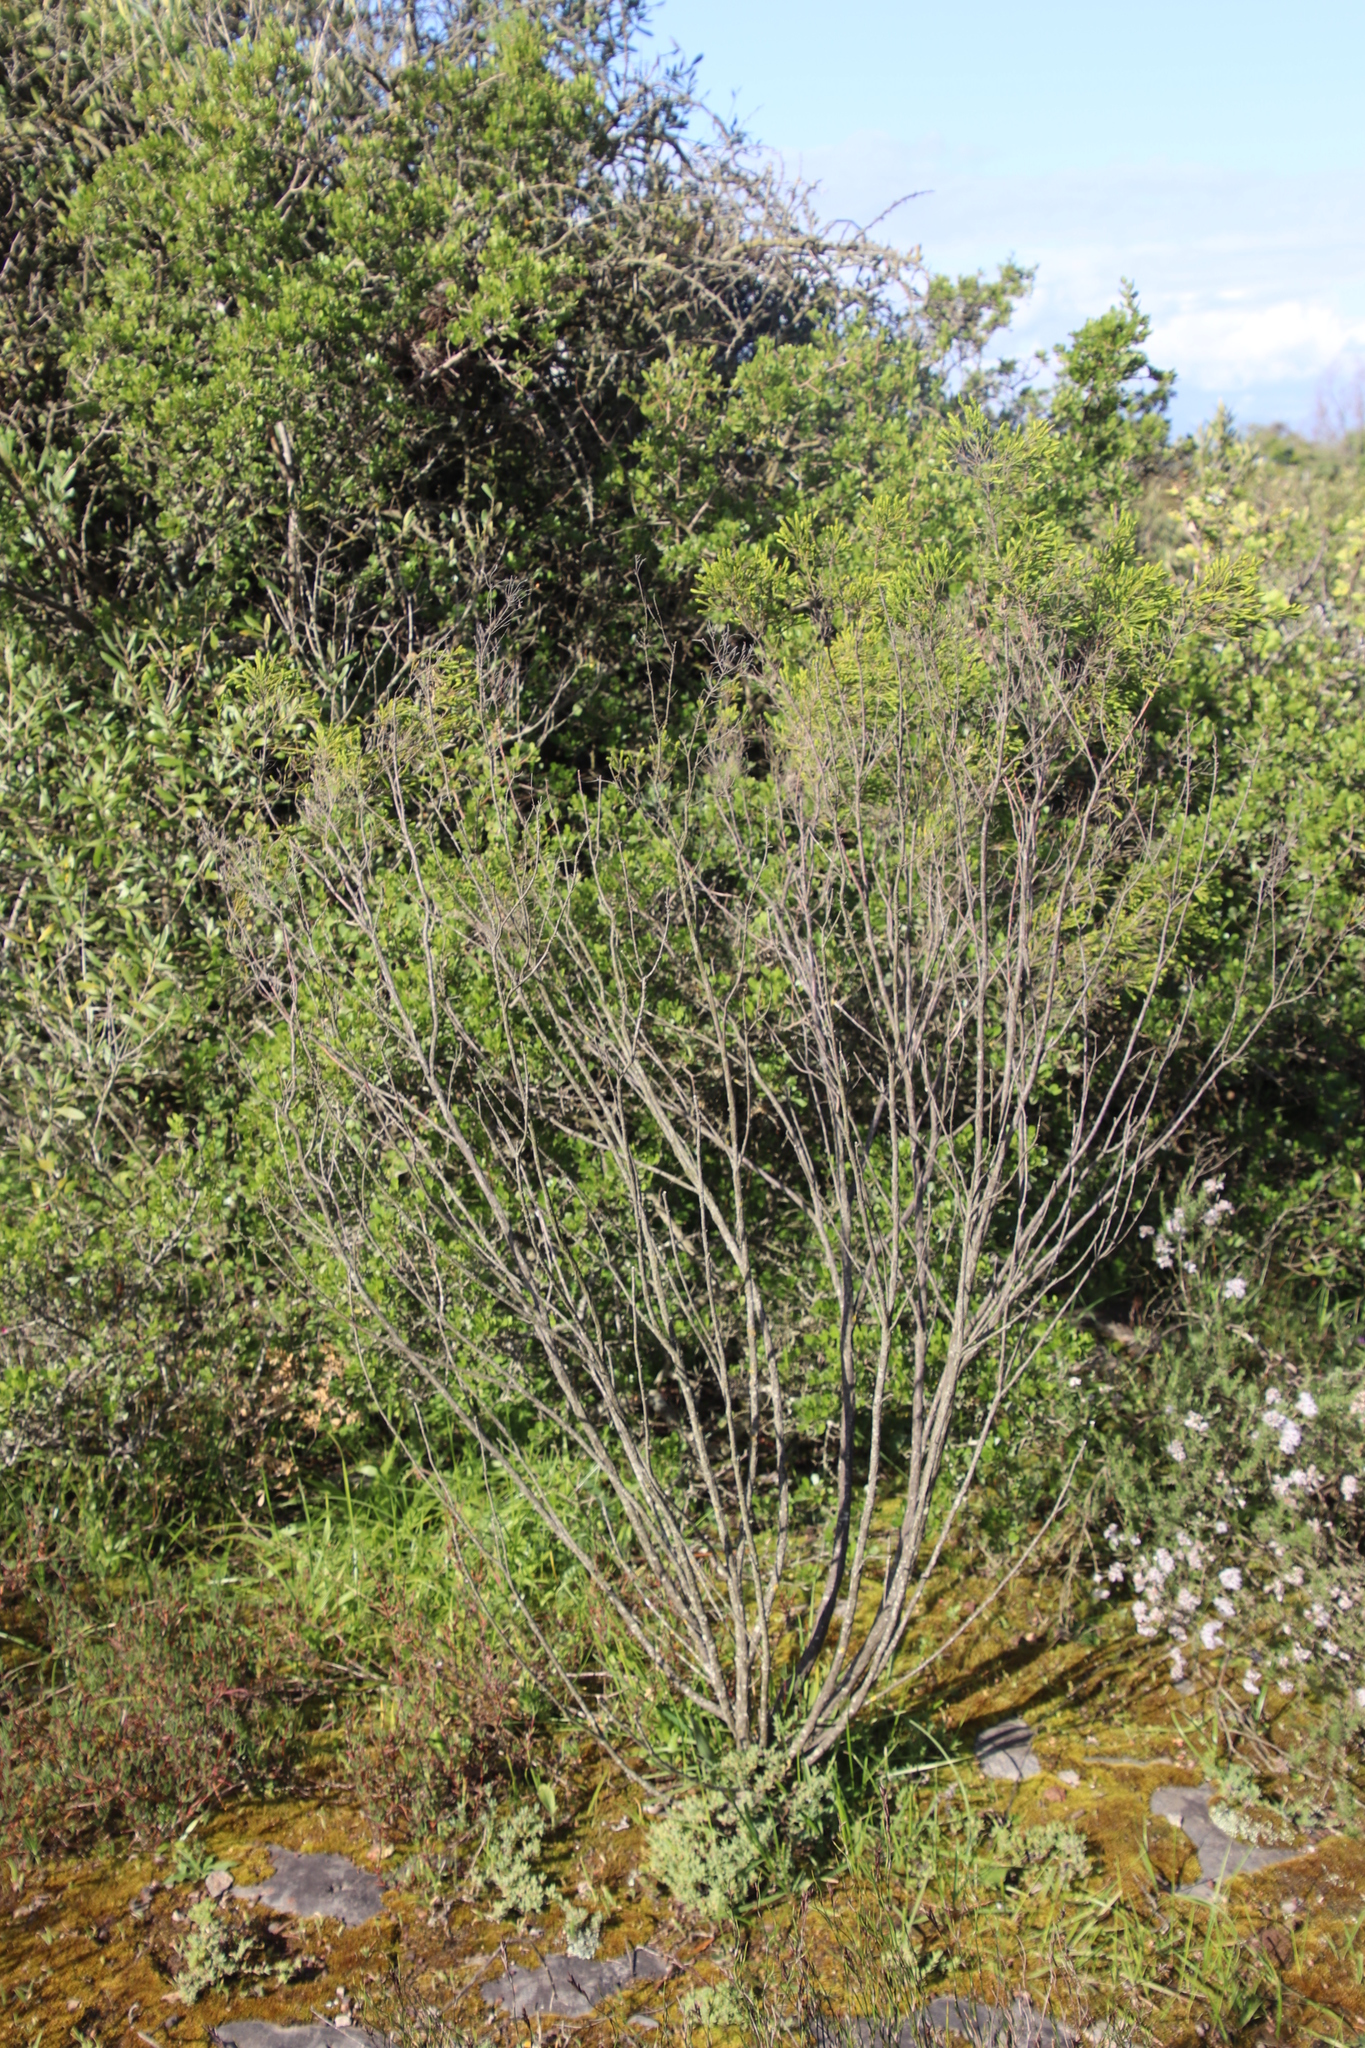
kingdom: Plantae
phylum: Tracheophyta
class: Magnoliopsida
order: Malvales
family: Thymelaeaceae
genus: Passerina
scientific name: Passerina corymbosa
